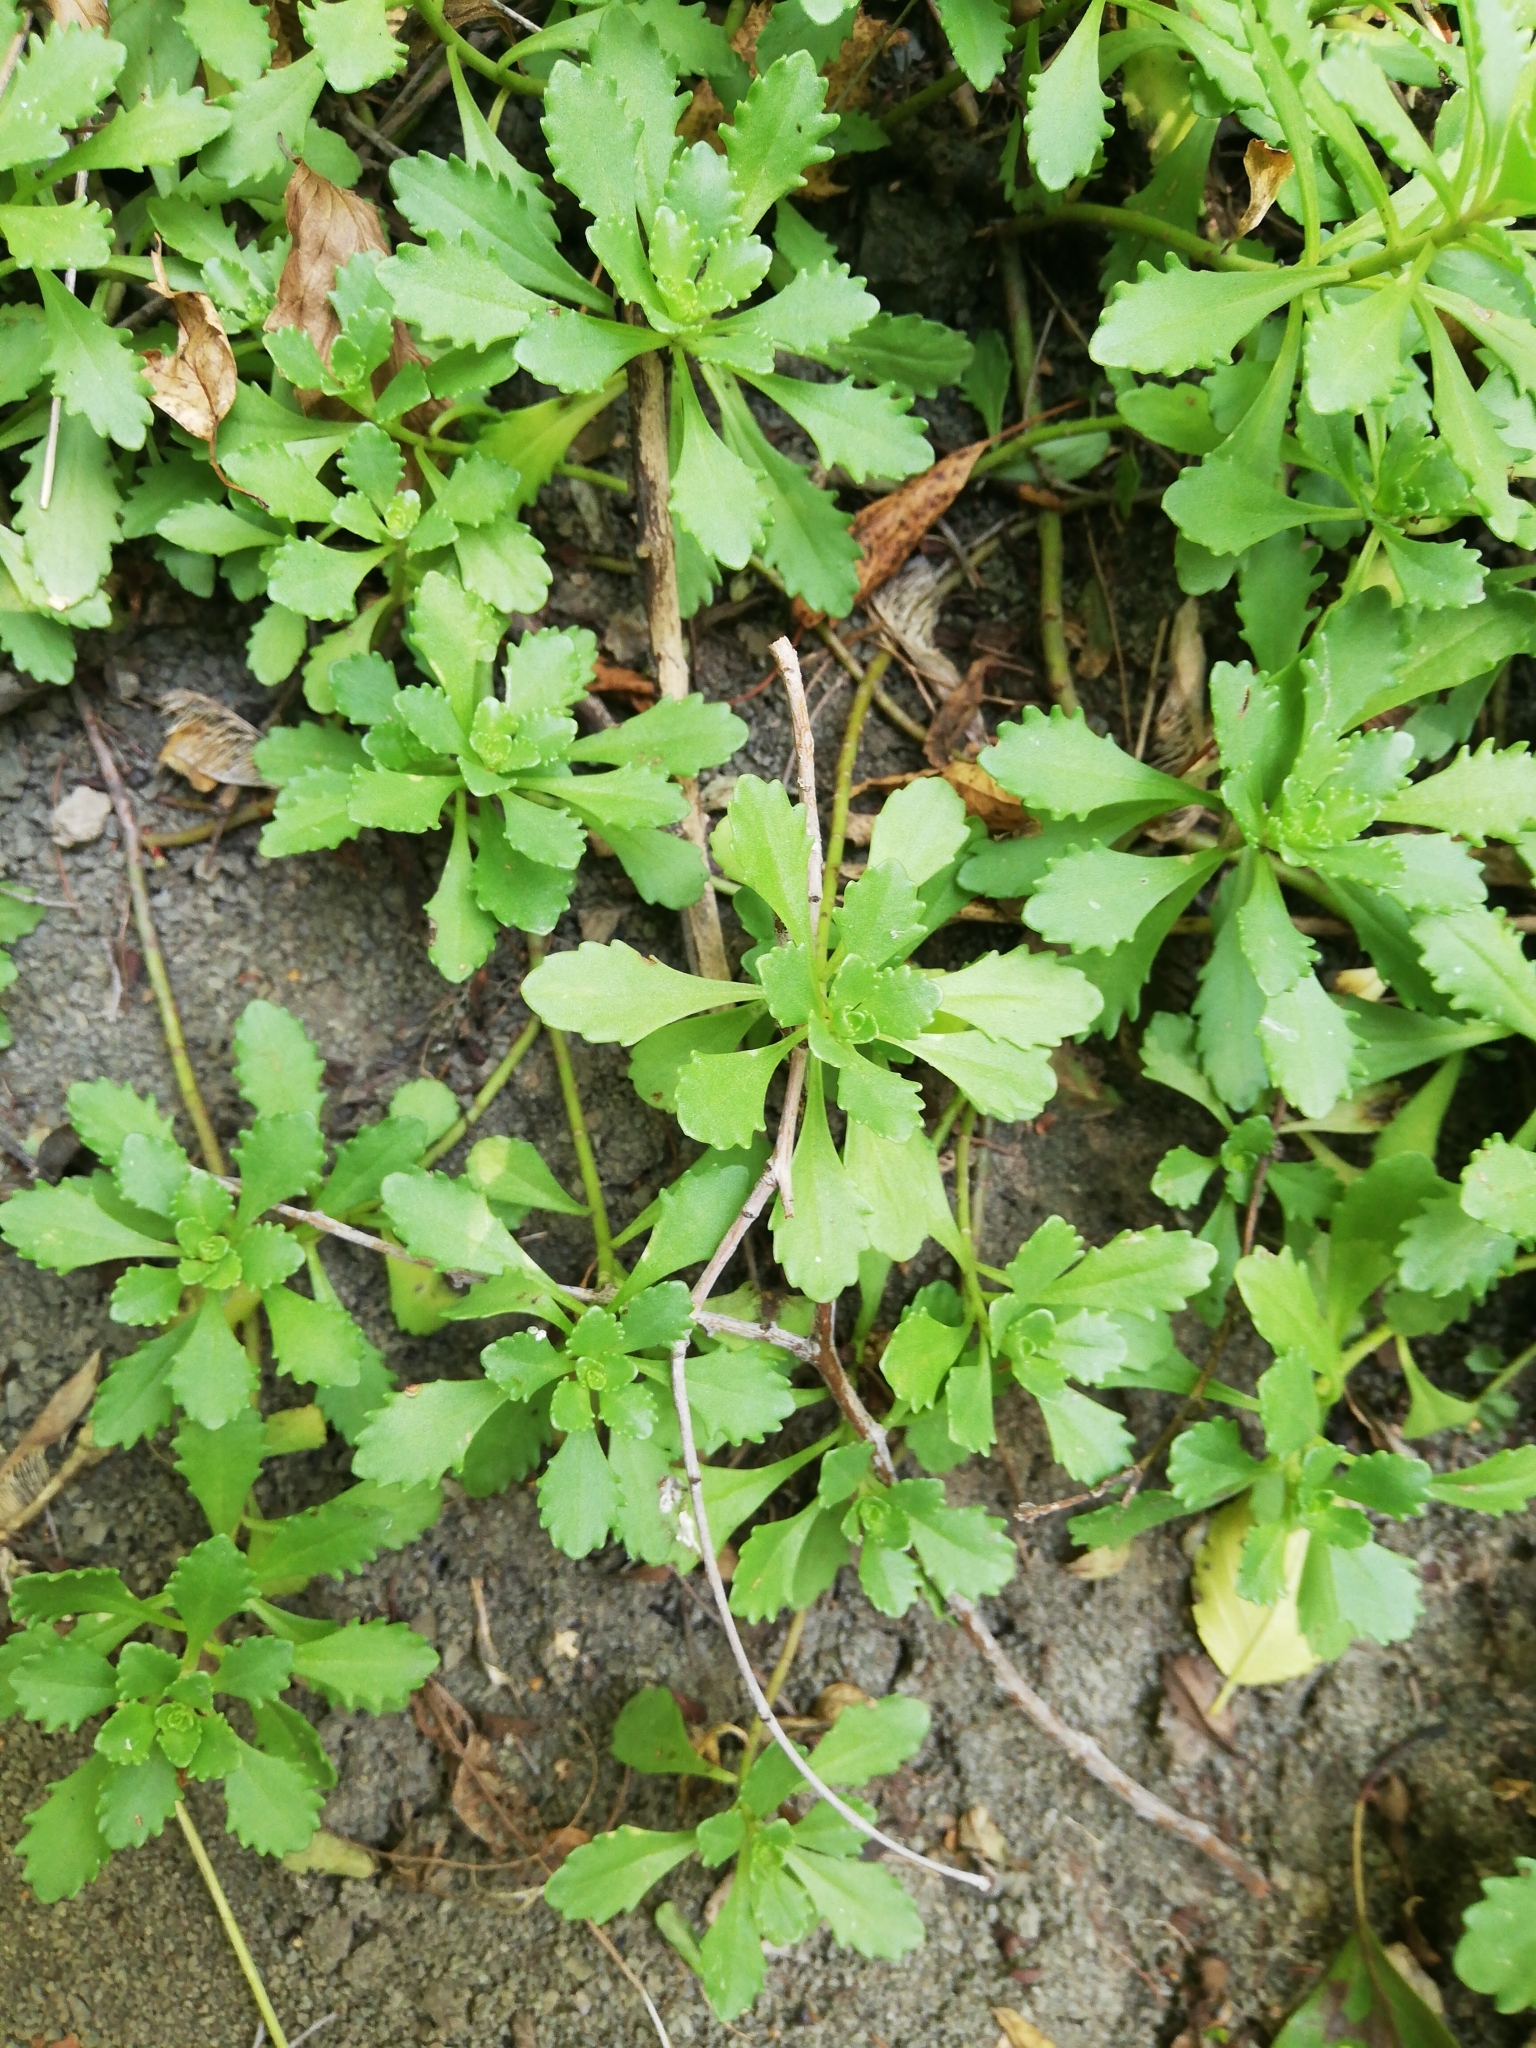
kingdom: Plantae
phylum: Tracheophyta
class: Magnoliopsida
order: Saxifragales
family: Crassulaceae
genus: Phedimus
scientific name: Phedimus hybridus
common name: Hybrid stonecrop
